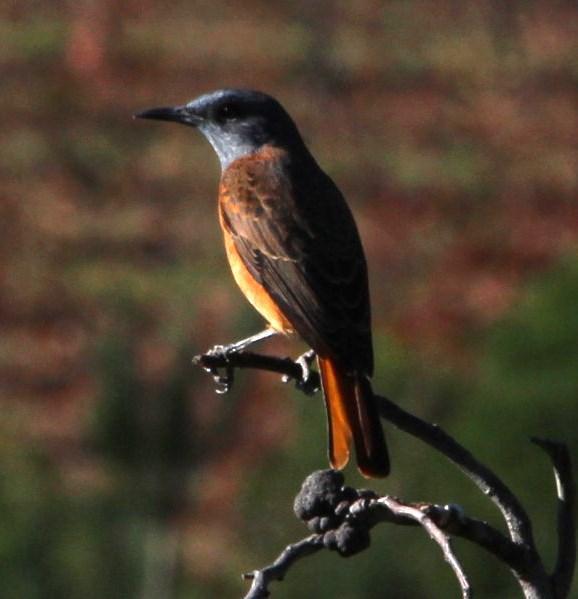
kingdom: Animalia
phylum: Chordata
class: Aves
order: Passeriformes
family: Muscicapidae
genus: Monticola
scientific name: Monticola rupestris
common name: Cape rock thrush
